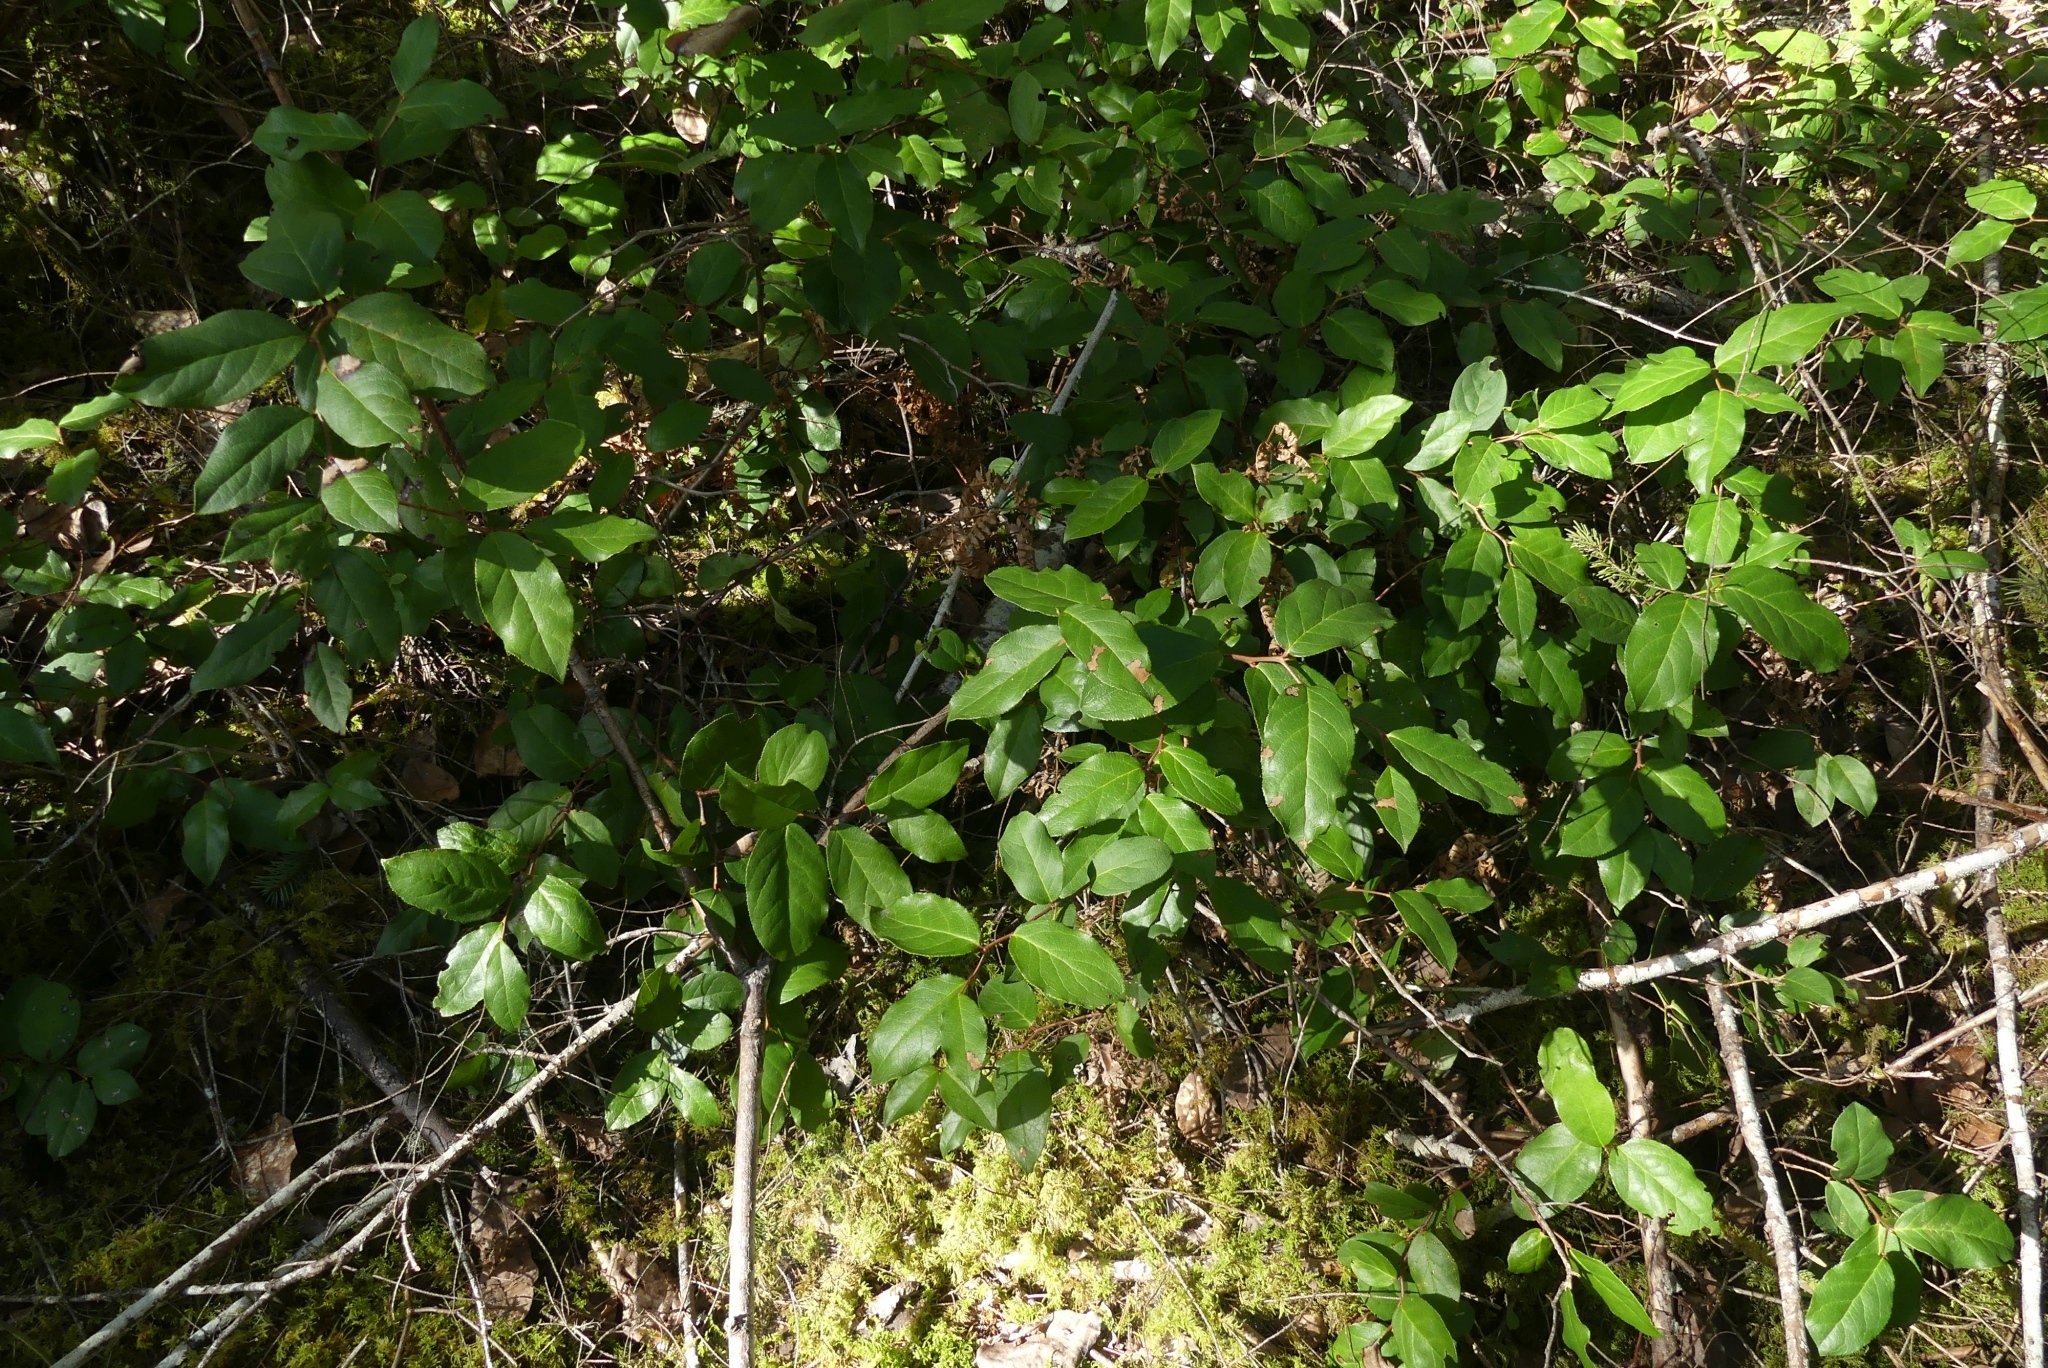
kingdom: Plantae
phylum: Tracheophyta
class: Magnoliopsida
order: Ericales
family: Ericaceae
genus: Gaultheria
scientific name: Gaultheria shallon
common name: Shallon
